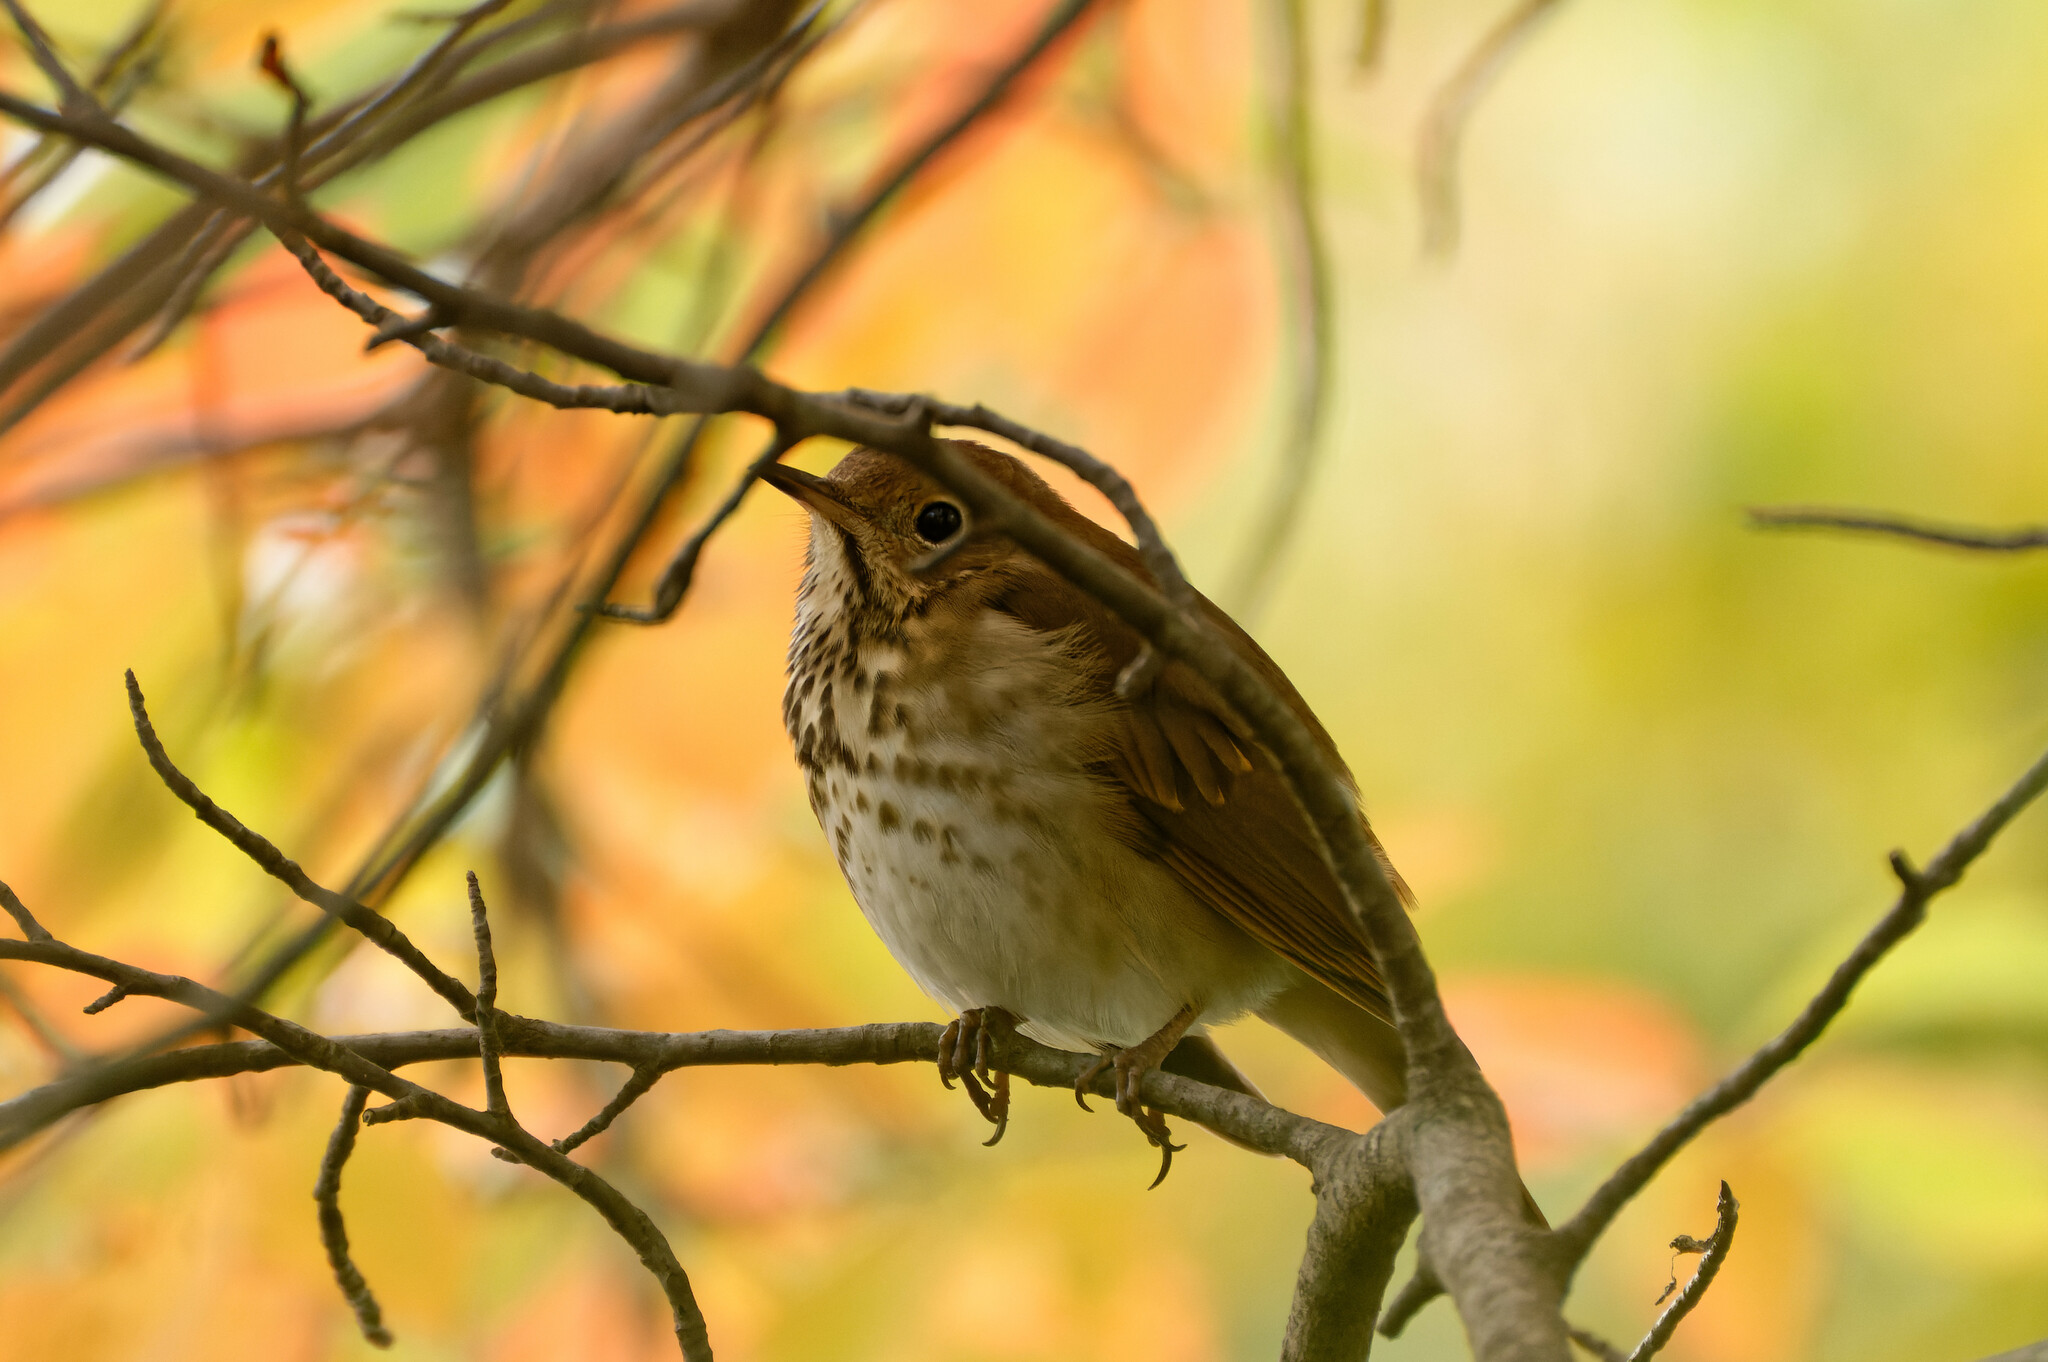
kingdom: Animalia
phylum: Chordata
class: Aves
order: Passeriformes
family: Turdidae
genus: Catharus
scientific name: Catharus guttatus
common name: Hermit thrush
